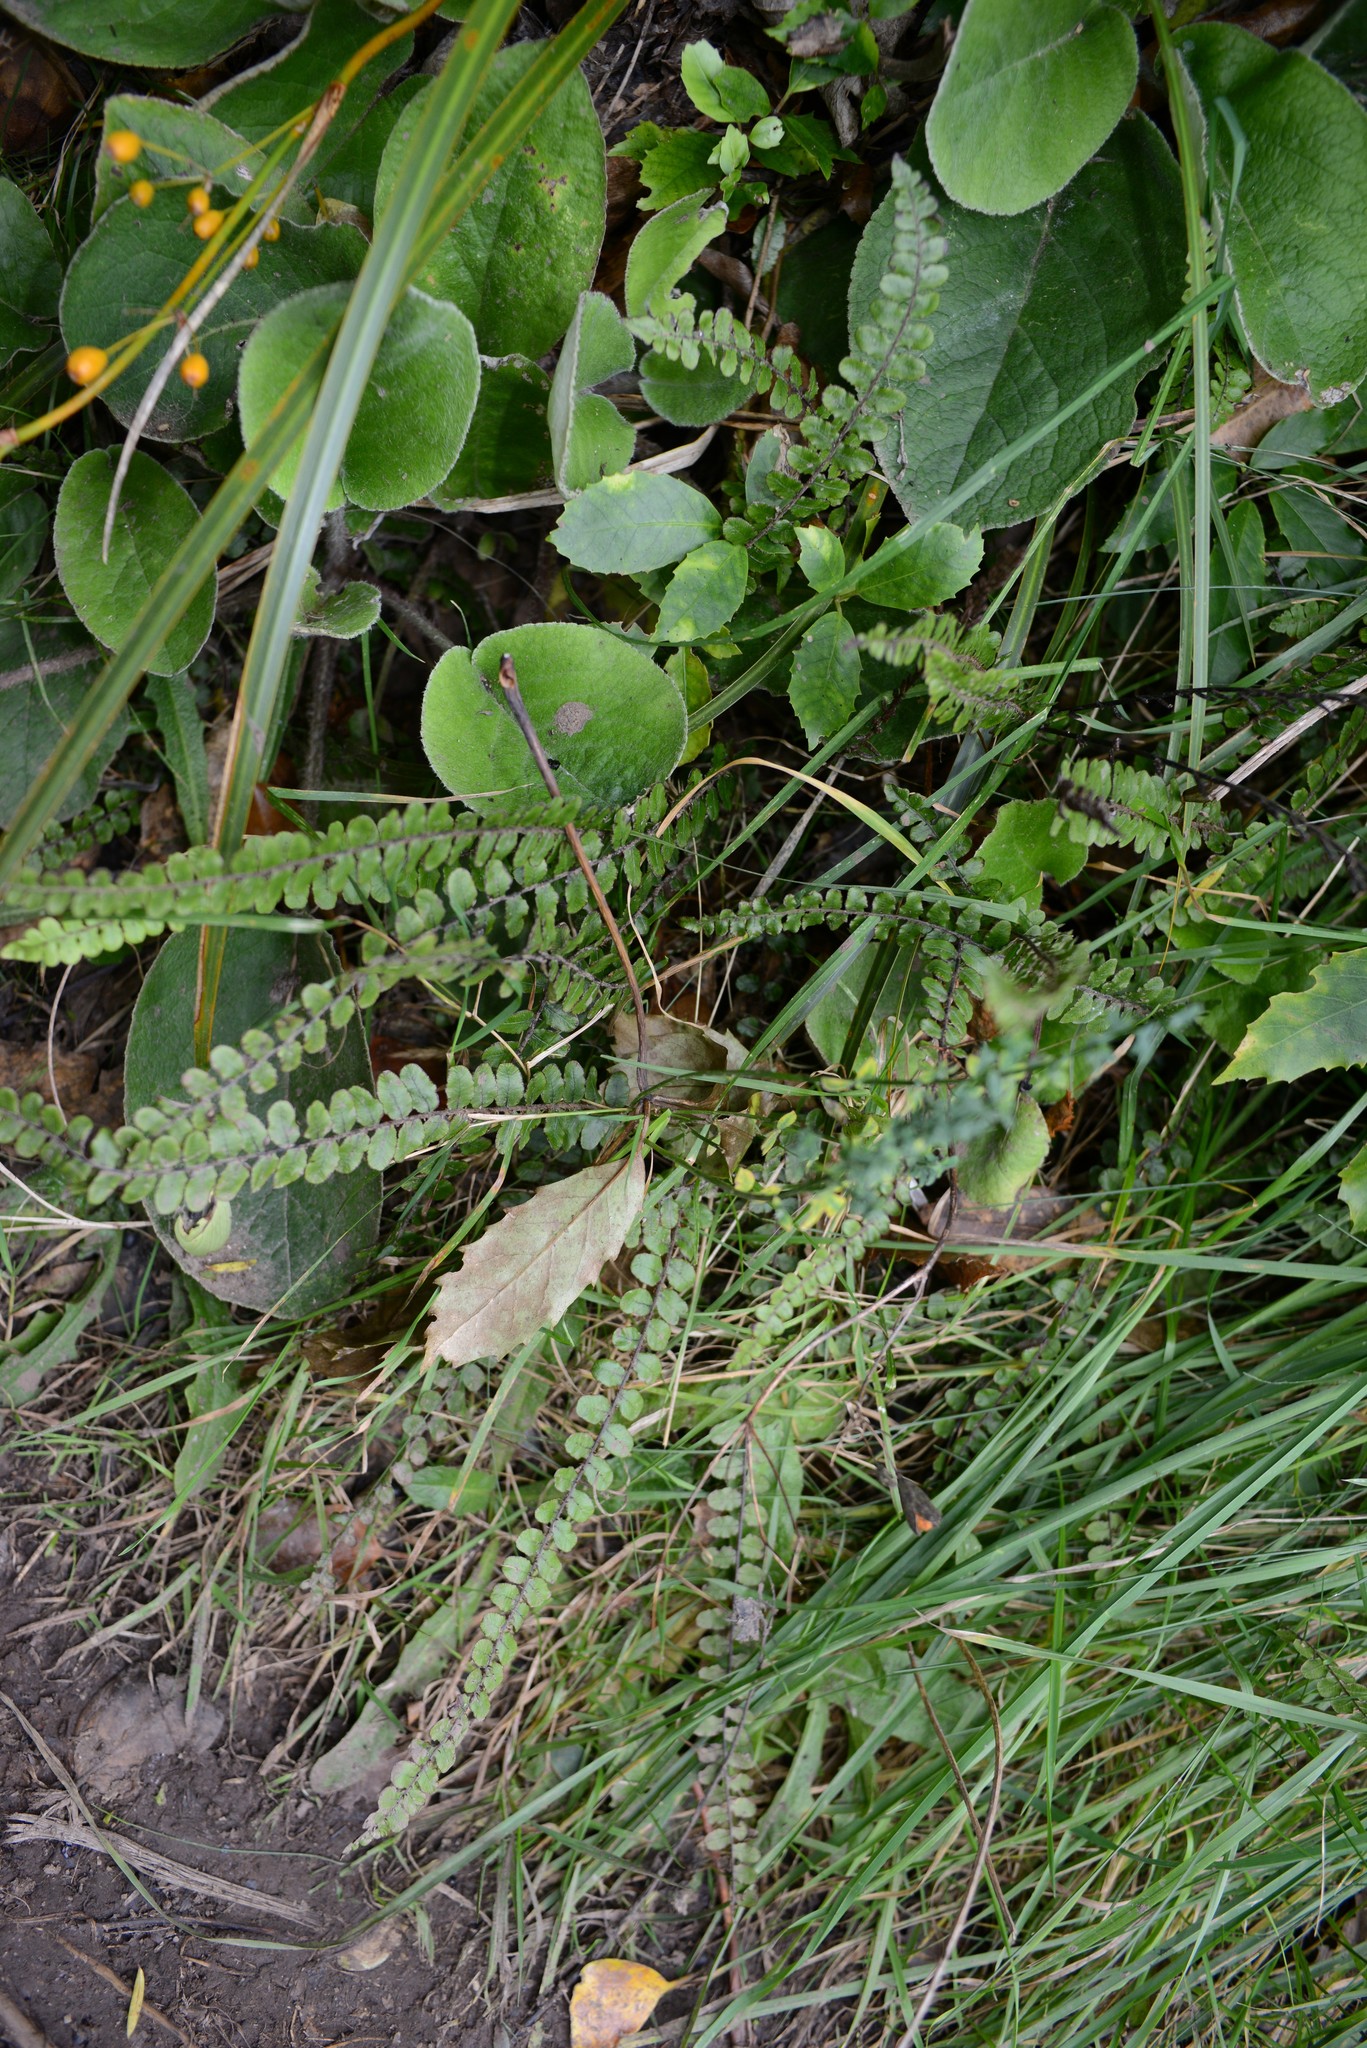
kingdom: Plantae
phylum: Tracheophyta
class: Polypodiopsida
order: Polypodiales
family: Blechnaceae
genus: Cranfillia
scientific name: Cranfillia fluviatilis
